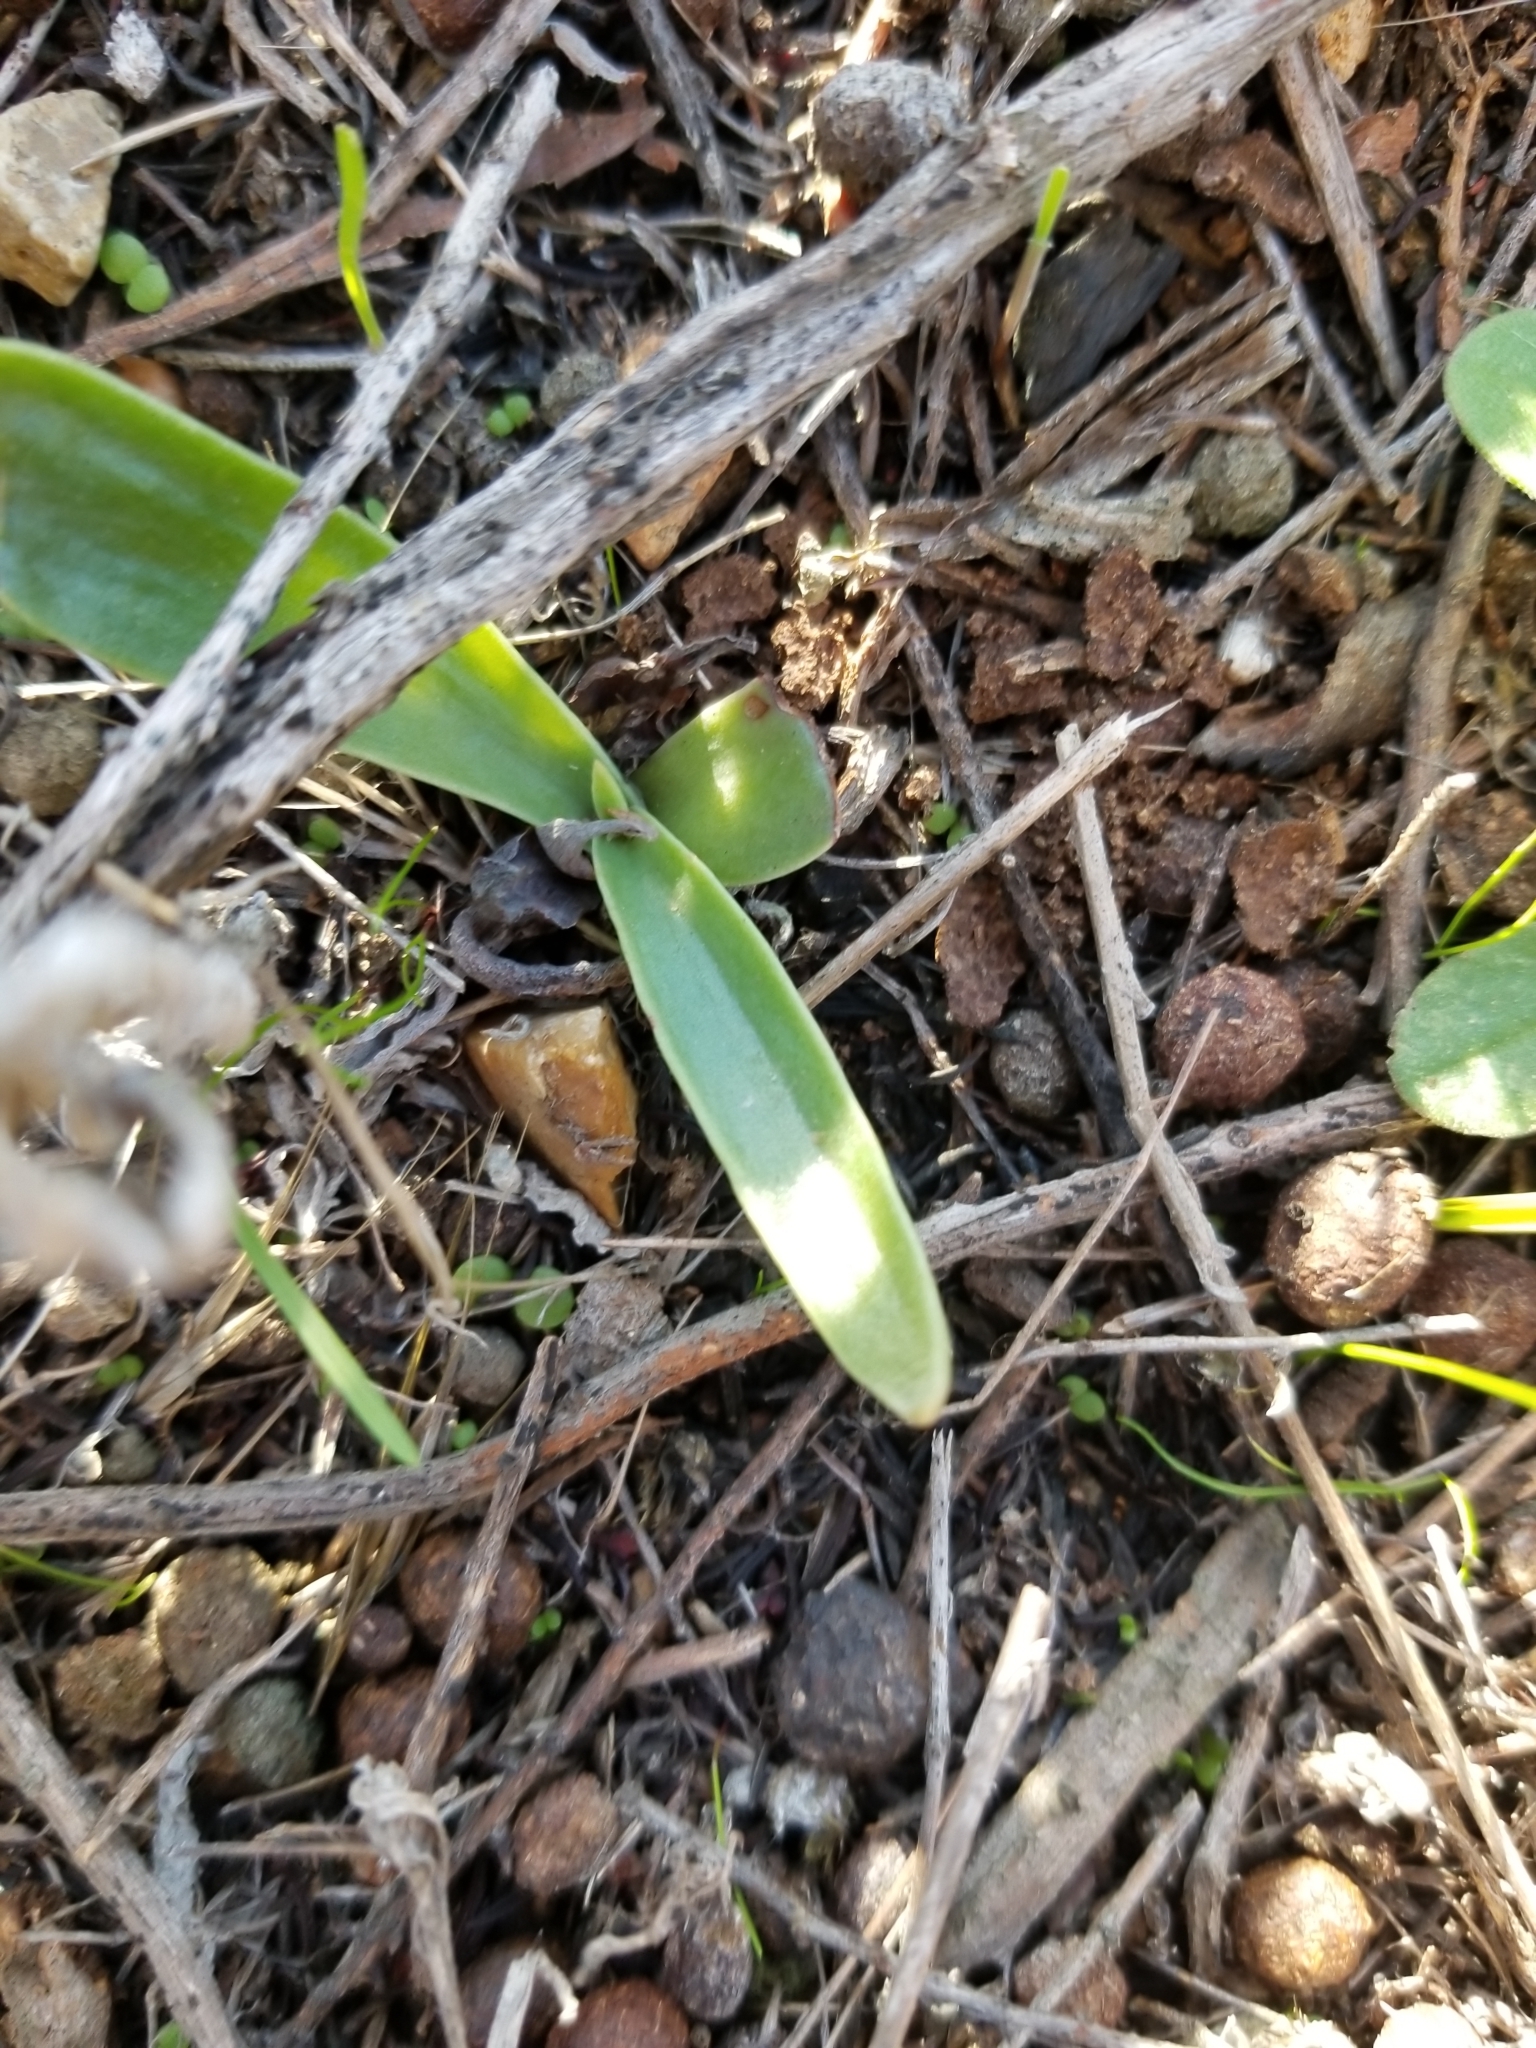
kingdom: Plantae
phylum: Tracheophyta
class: Magnoliopsida
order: Saxifragales
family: Crassulaceae
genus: Dudleya
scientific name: Dudleya lanceolata
